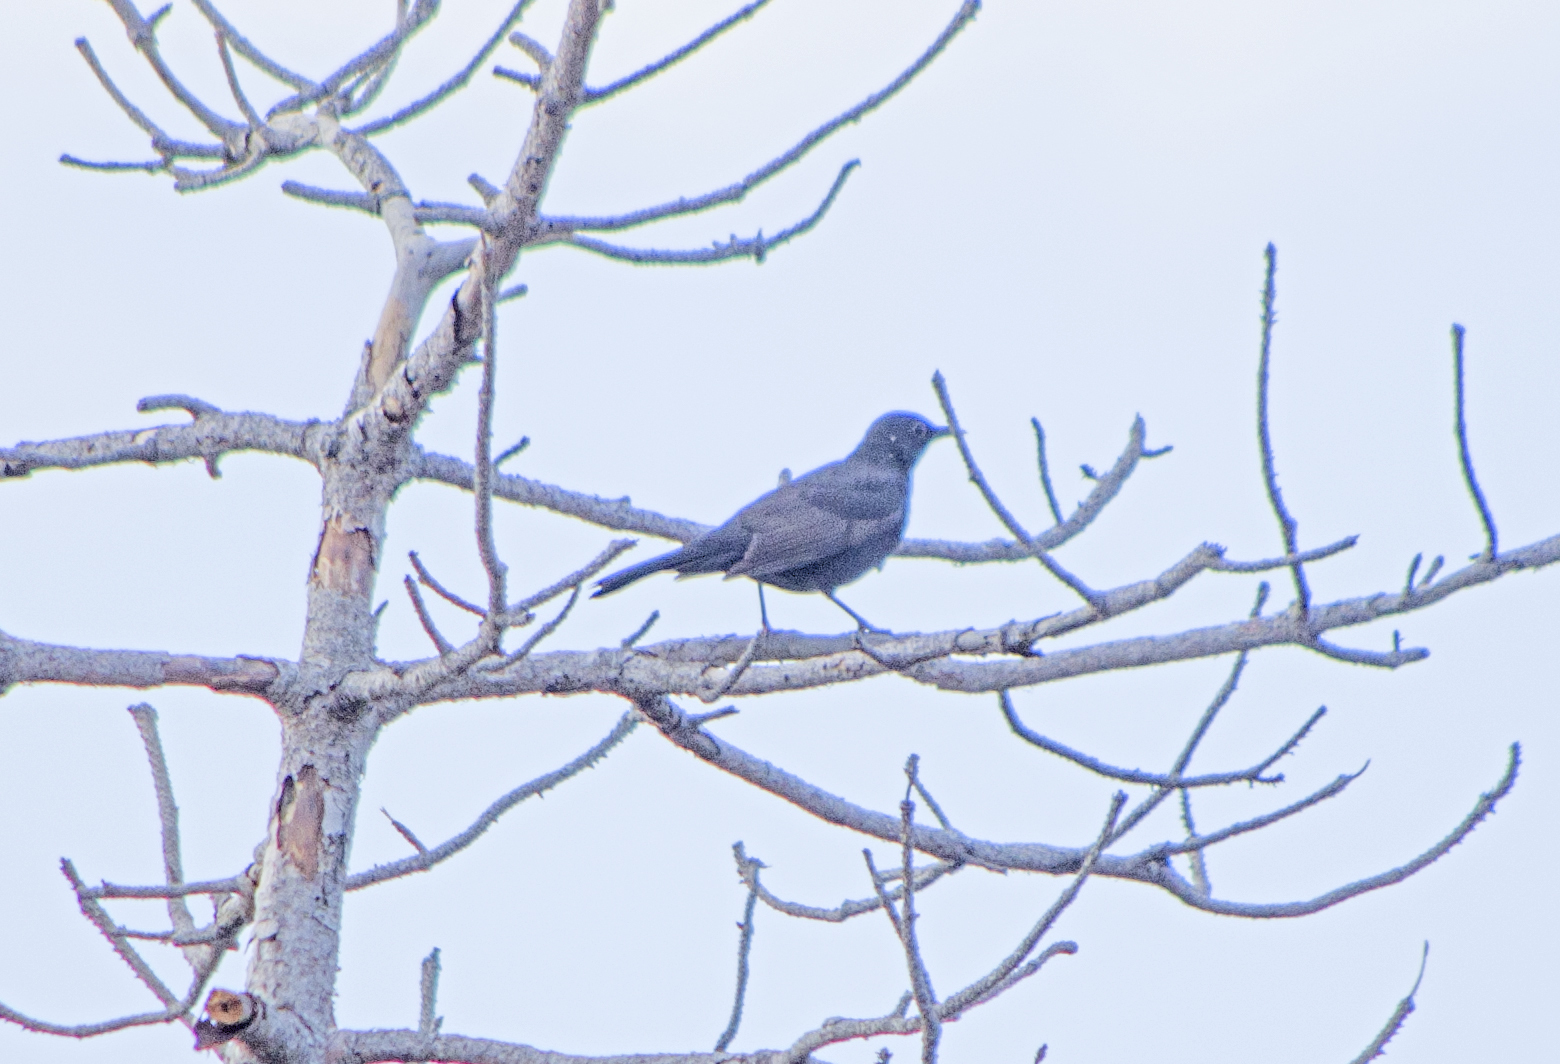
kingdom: Animalia
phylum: Chordata
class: Aves
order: Passeriformes
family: Turdidae
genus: Turdus
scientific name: Turdus merula
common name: Common blackbird
